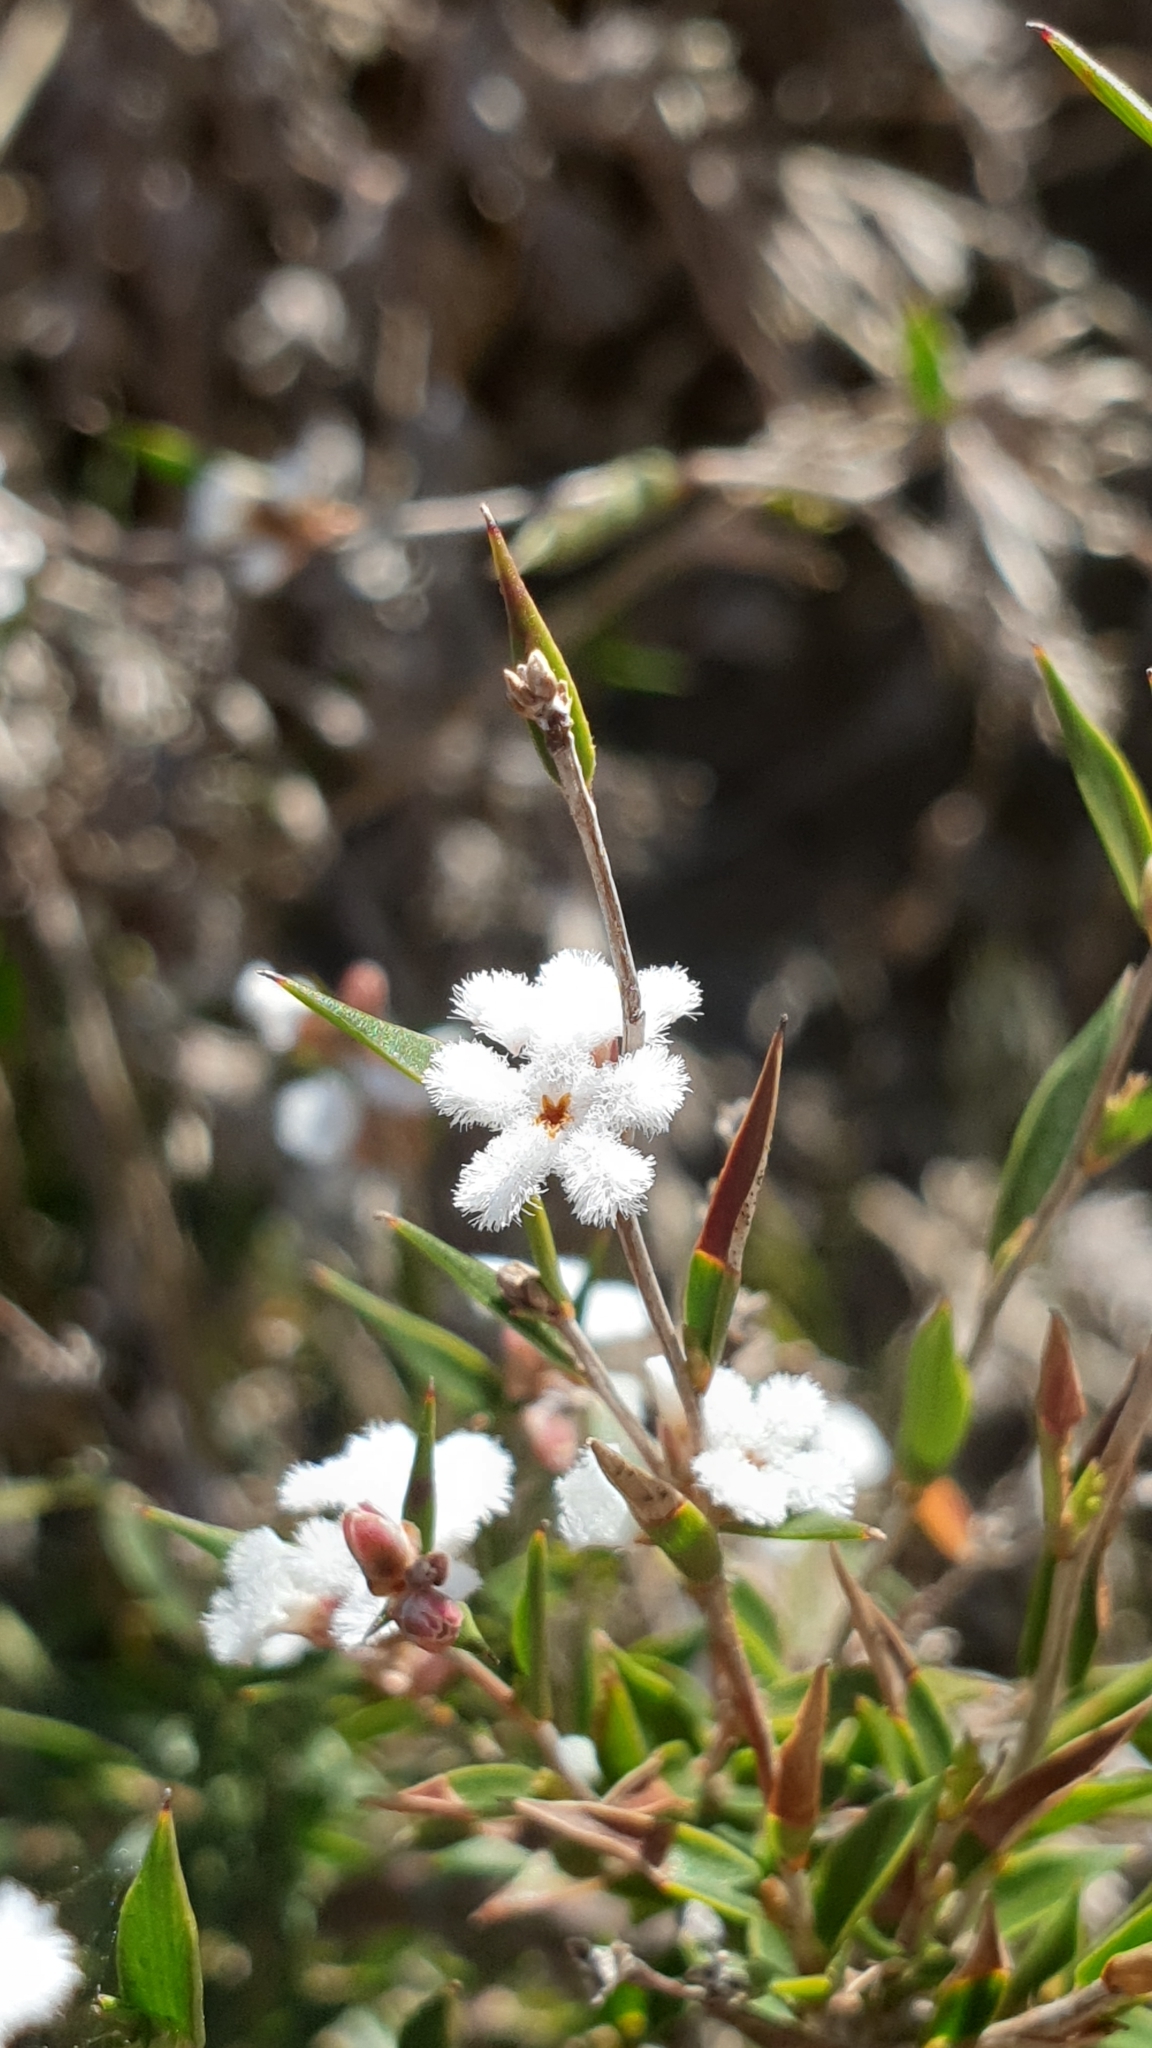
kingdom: Plantae
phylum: Tracheophyta
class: Magnoliopsida
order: Ericales
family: Ericaceae
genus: Leucopogon
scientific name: Leucopogon virgatus
